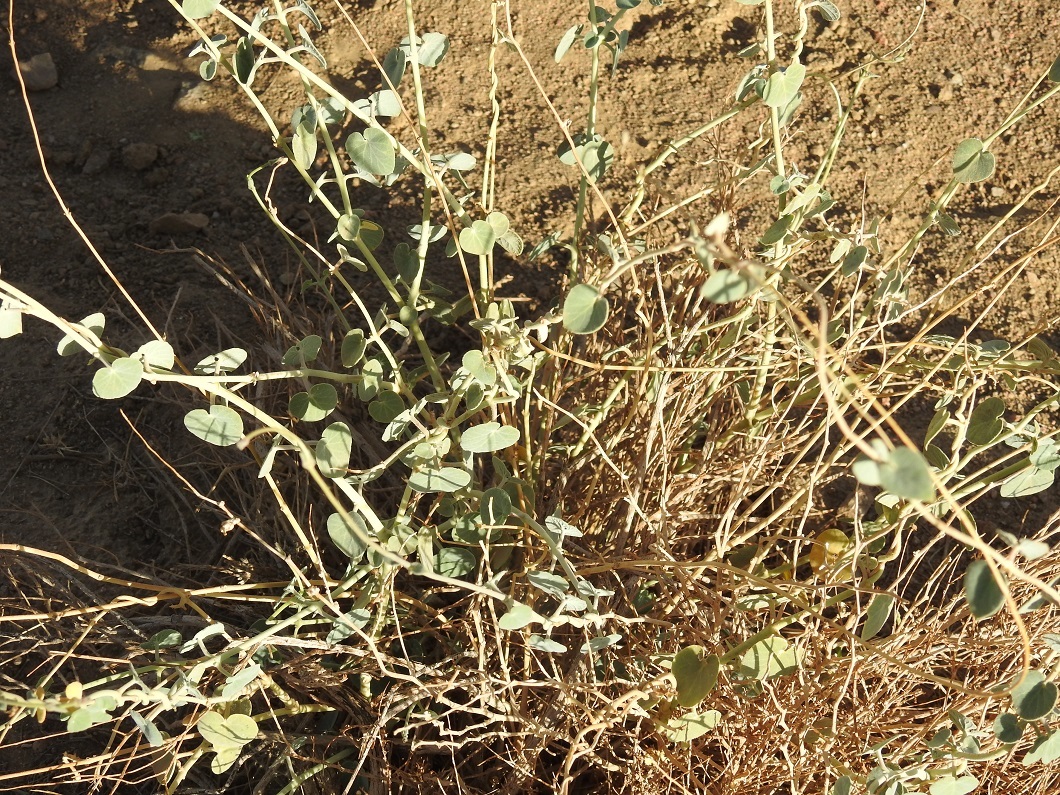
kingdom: Plantae
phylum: Tracheophyta
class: Magnoliopsida
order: Gentianales
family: Apocynaceae
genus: Pergularia
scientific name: Pergularia tomentosa
